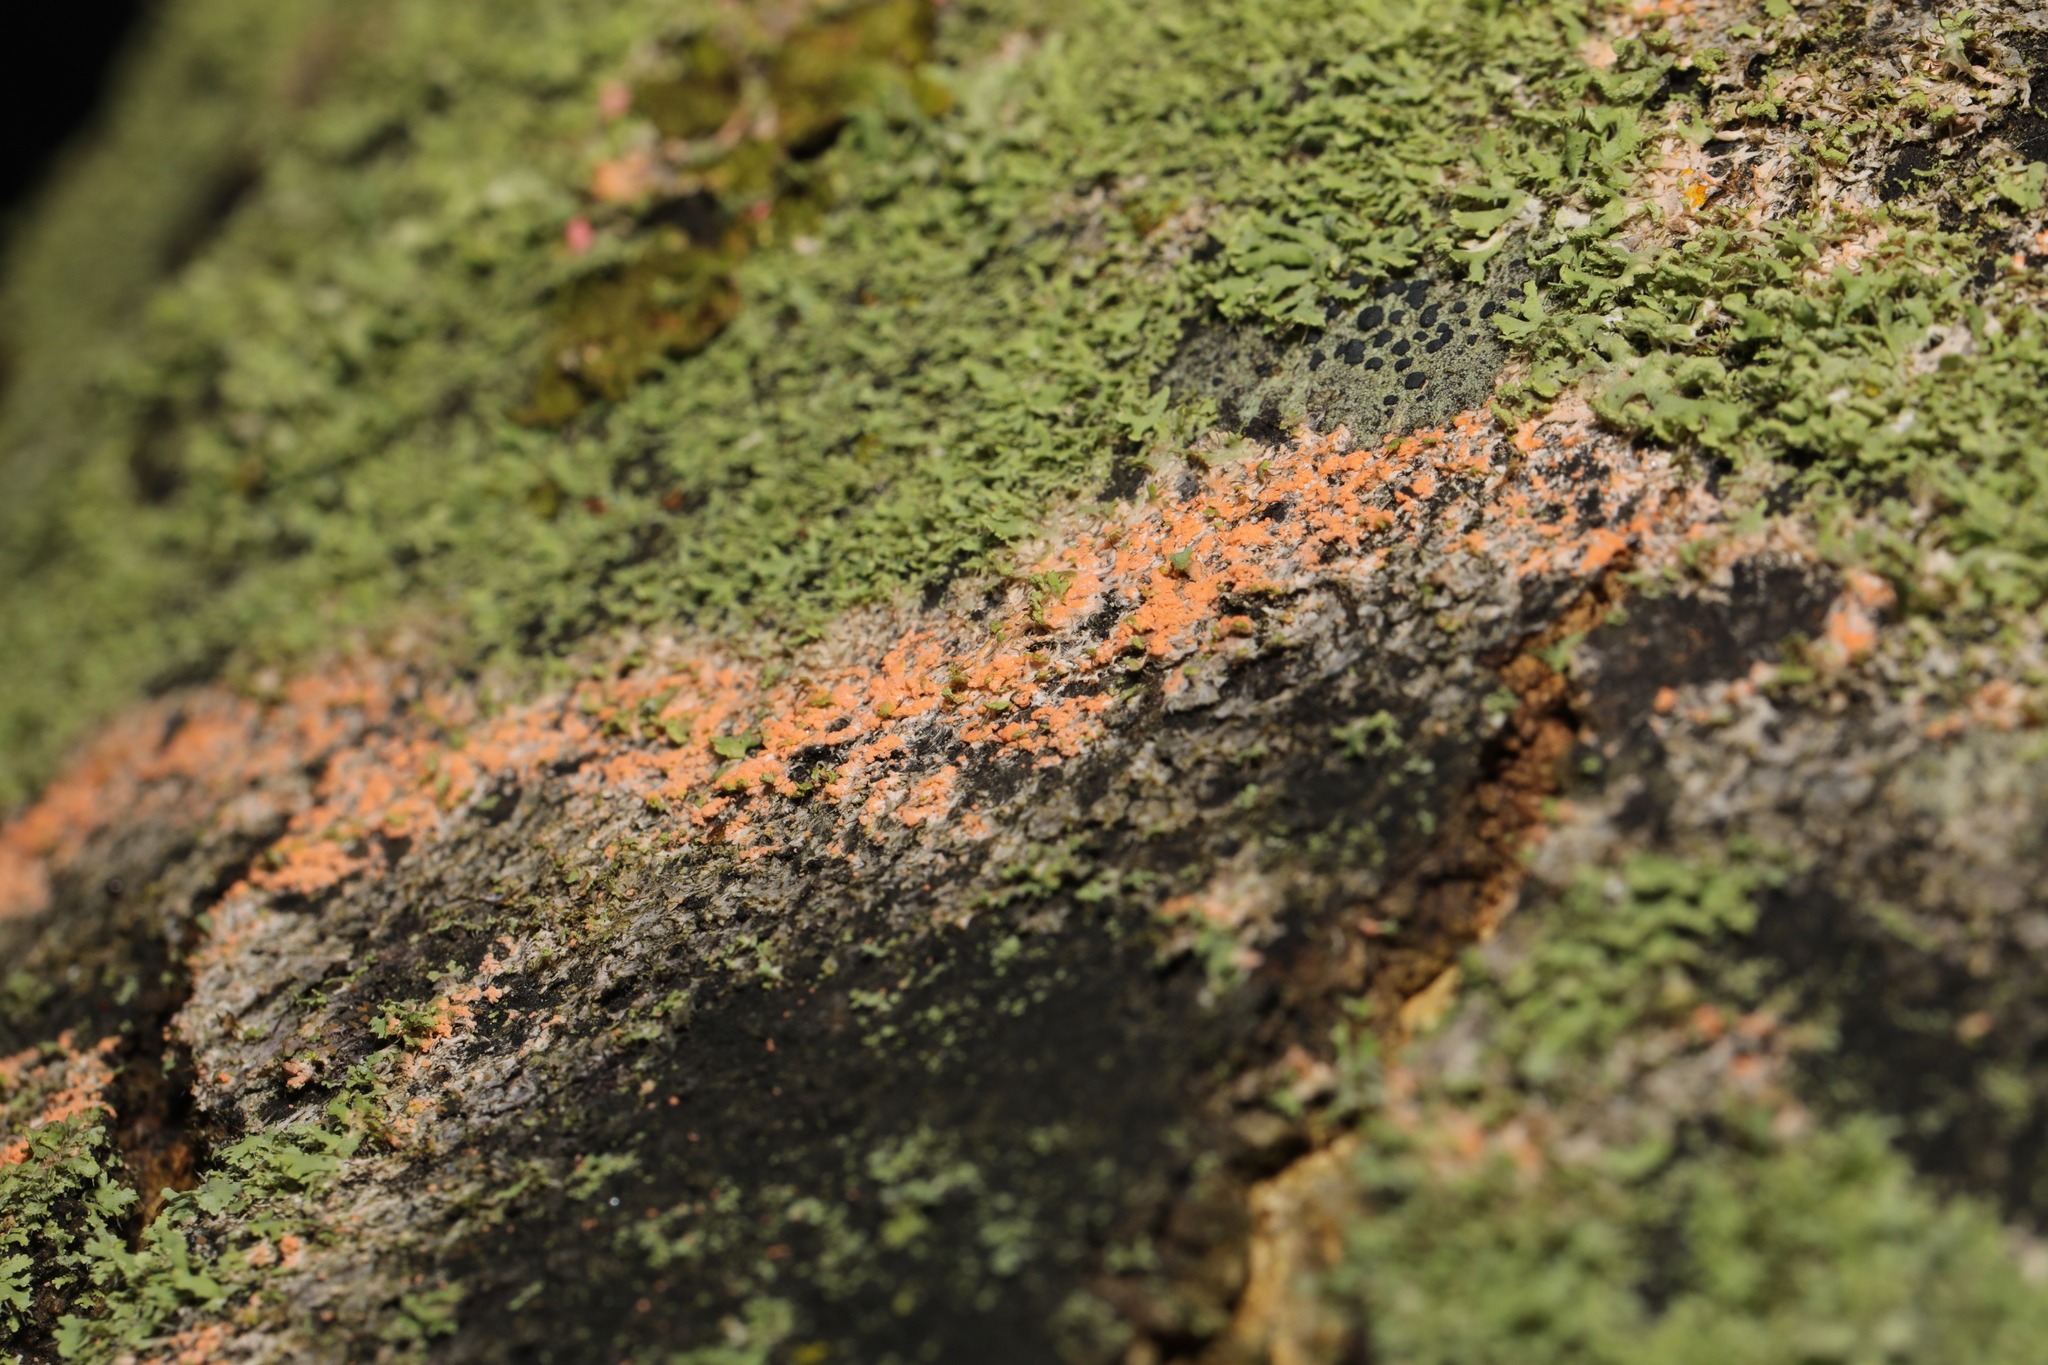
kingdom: Fungi
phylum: Basidiomycota
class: Agaricomycetes
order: Polyporales
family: Meruliaceae
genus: Phlebia
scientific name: Phlebia radiata
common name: Wrinkled crust
